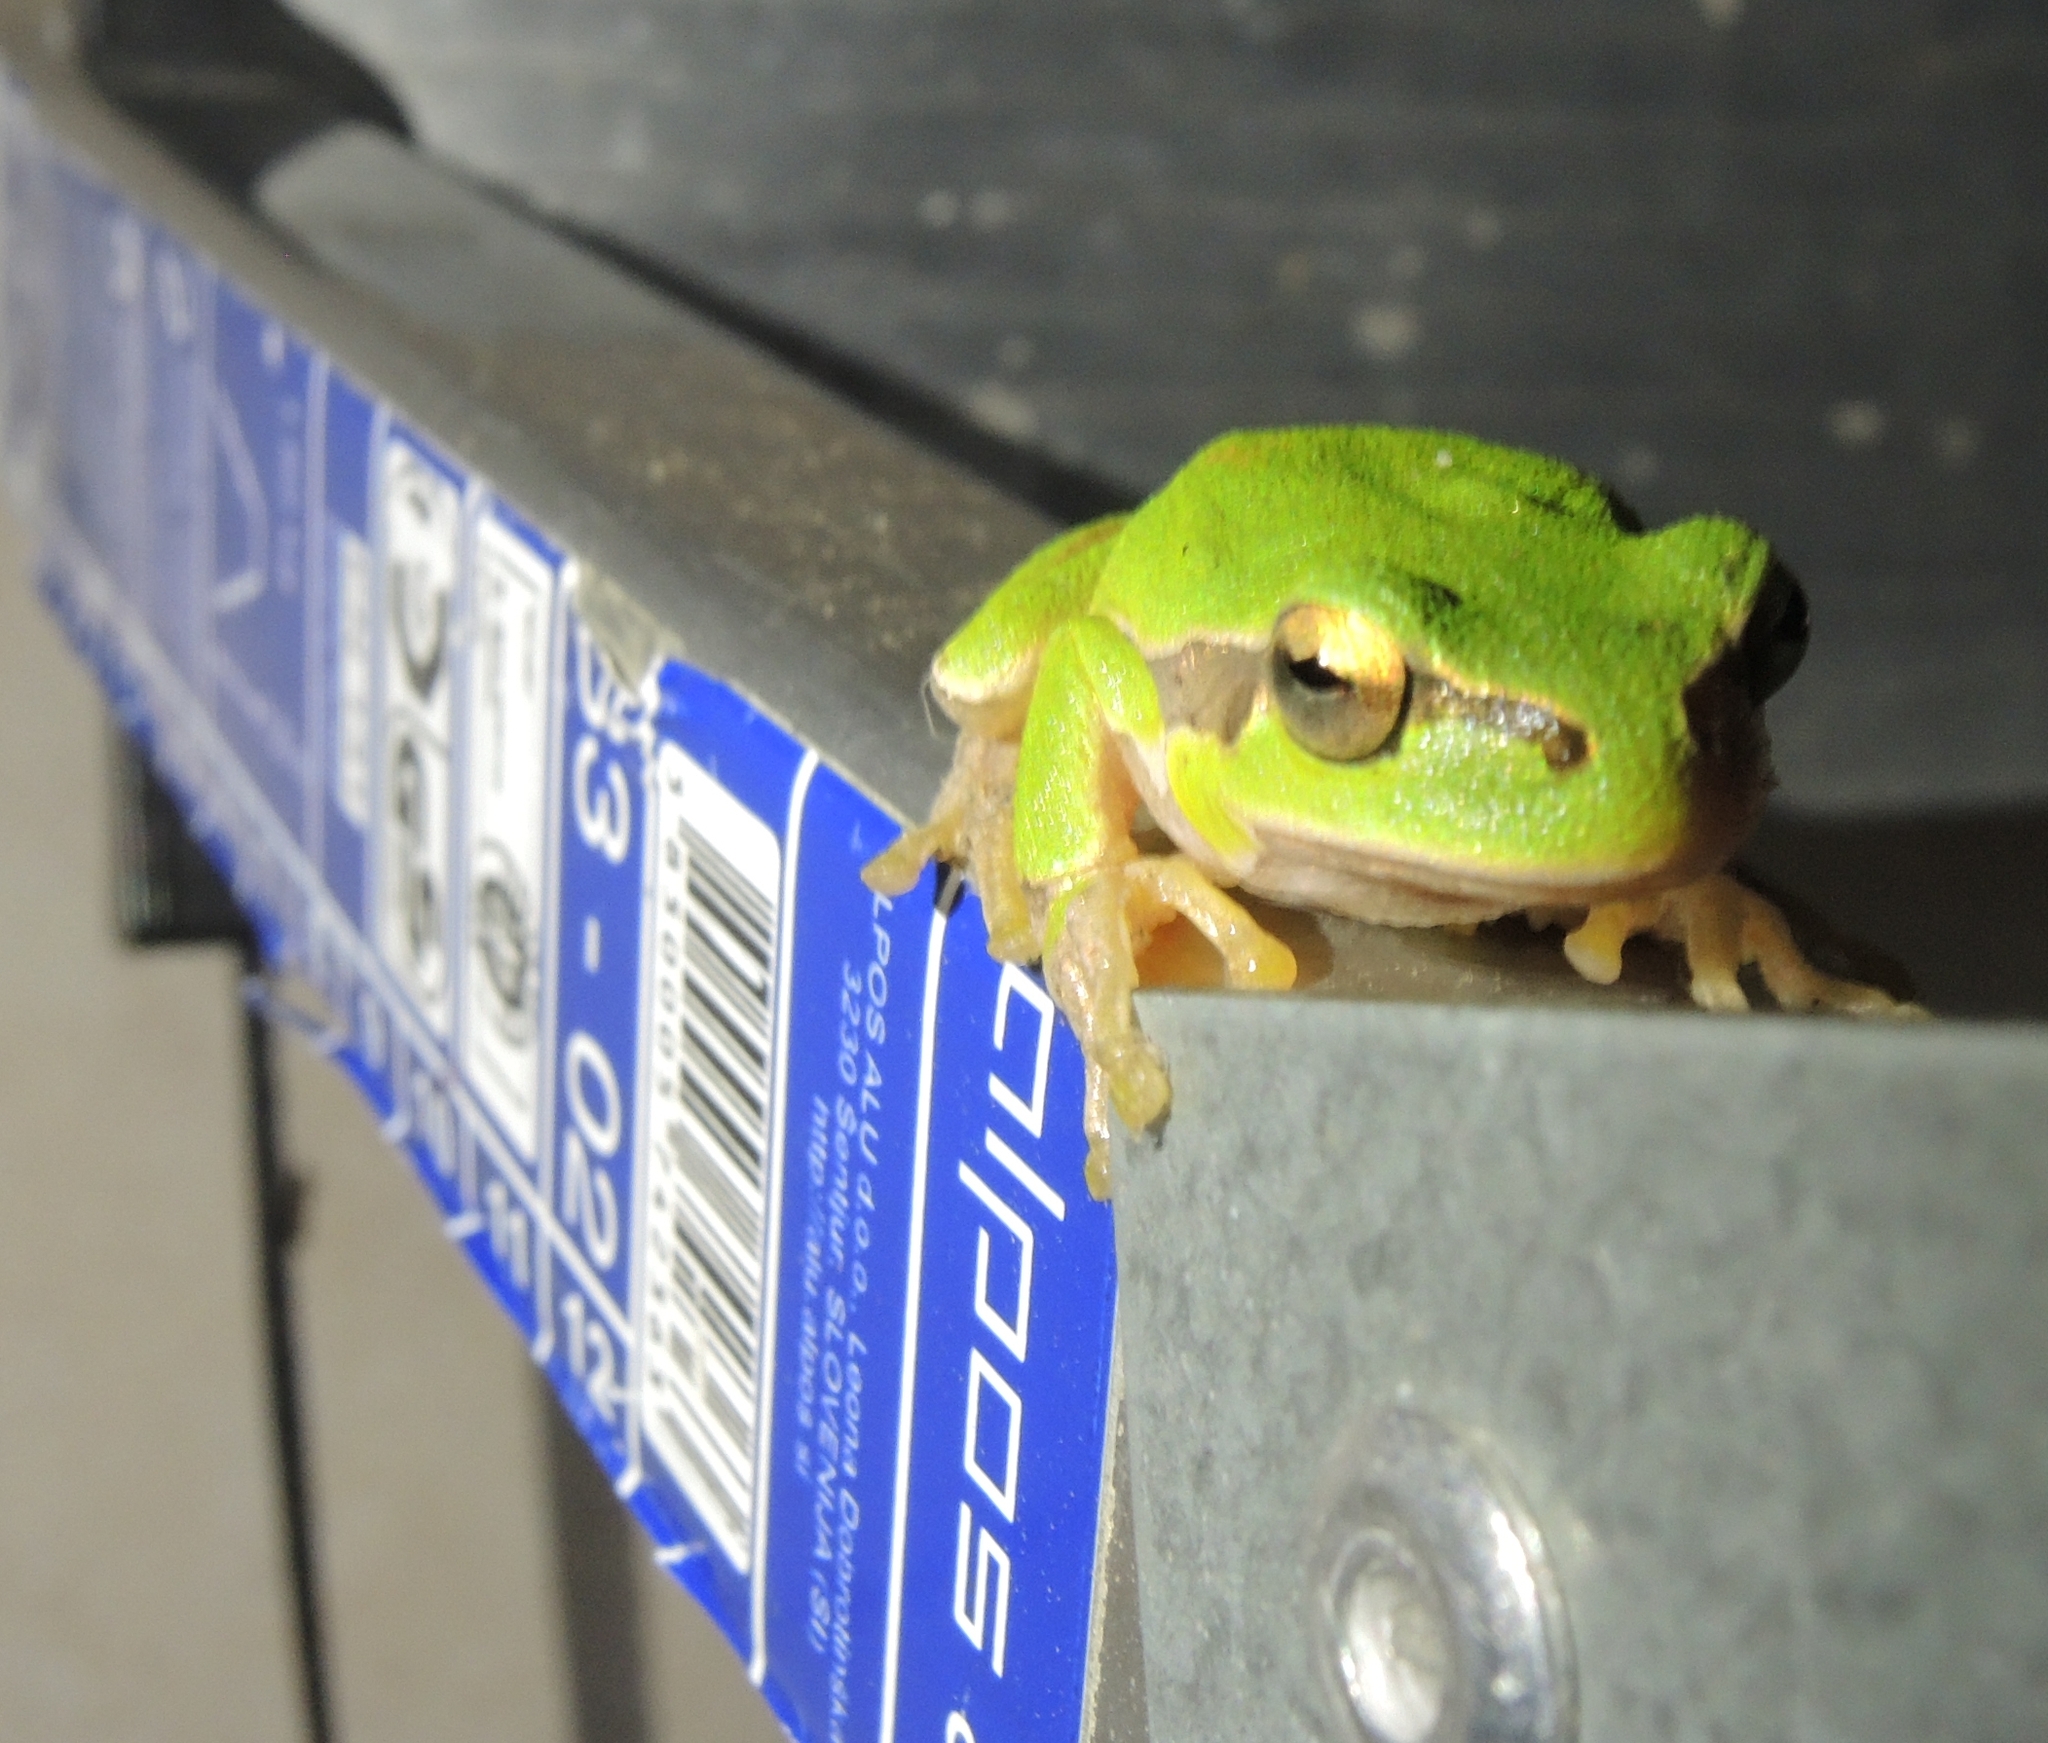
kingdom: Animalia
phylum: Chordata
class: Amphibia
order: Anura
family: Hylidae
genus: Hyla
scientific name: Hyla orientalis
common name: Caucasian treefrog
